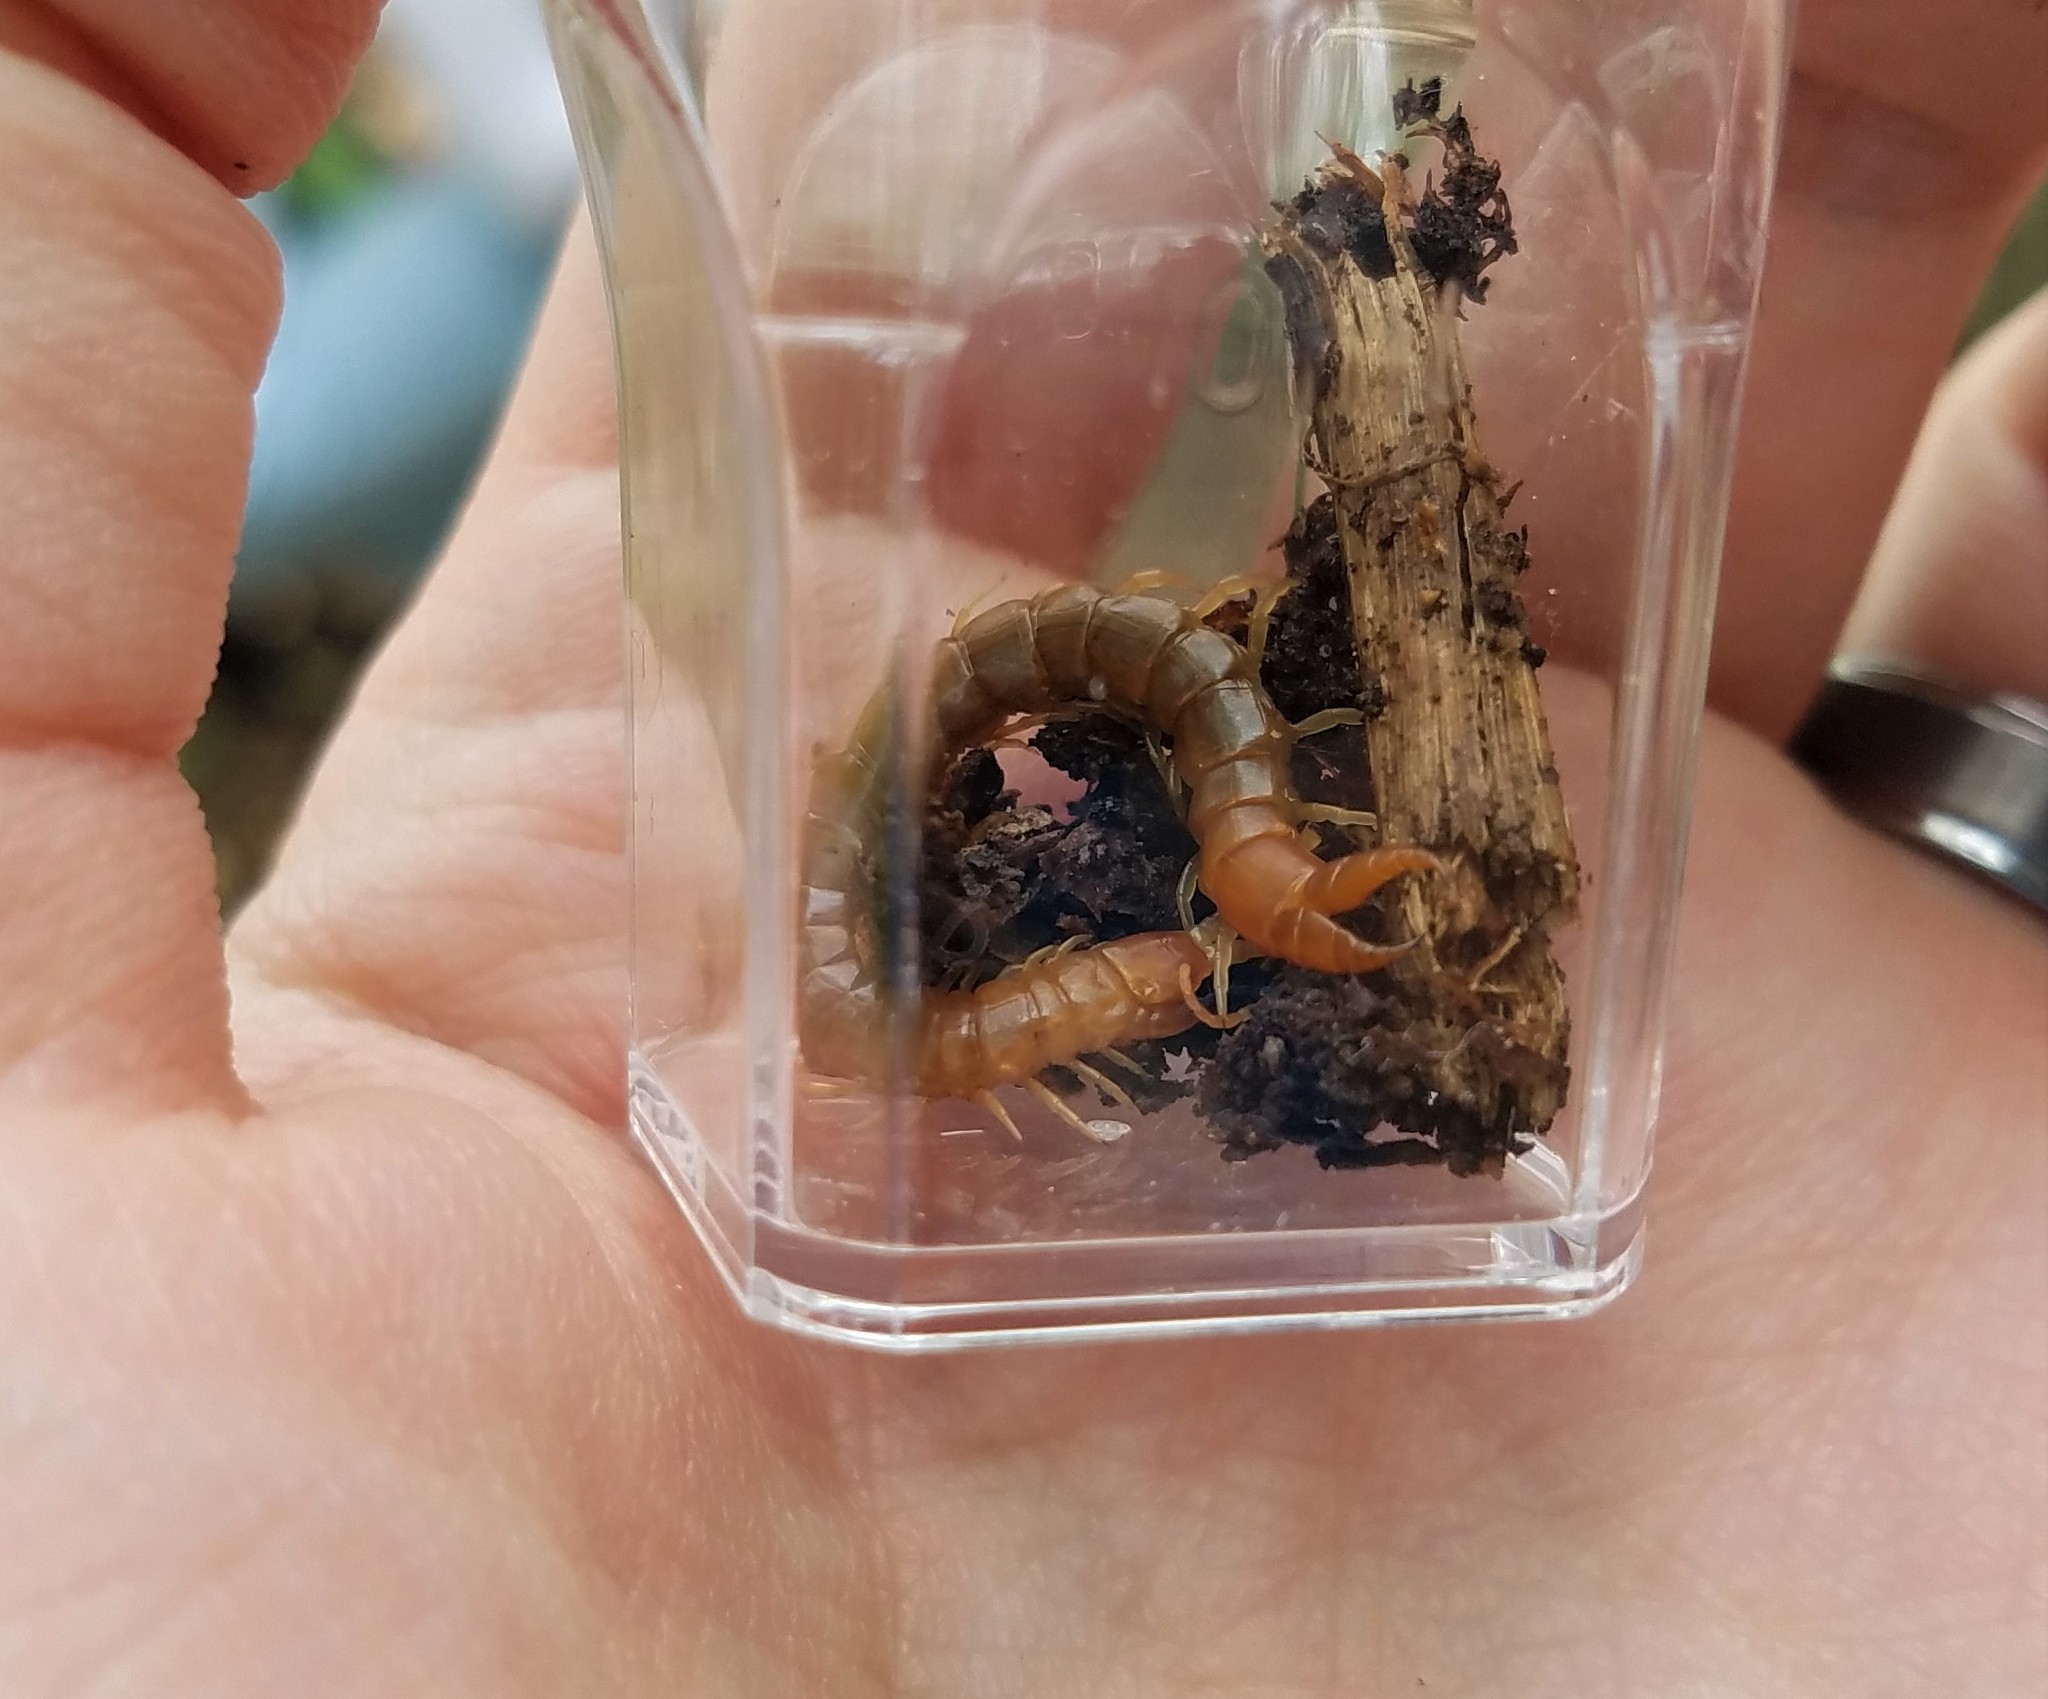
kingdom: Animalia
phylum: Arthropoda
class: Chilopoda
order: Scolopendromorpha
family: Cryptopidae
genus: Theatops
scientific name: Theatops posticus
